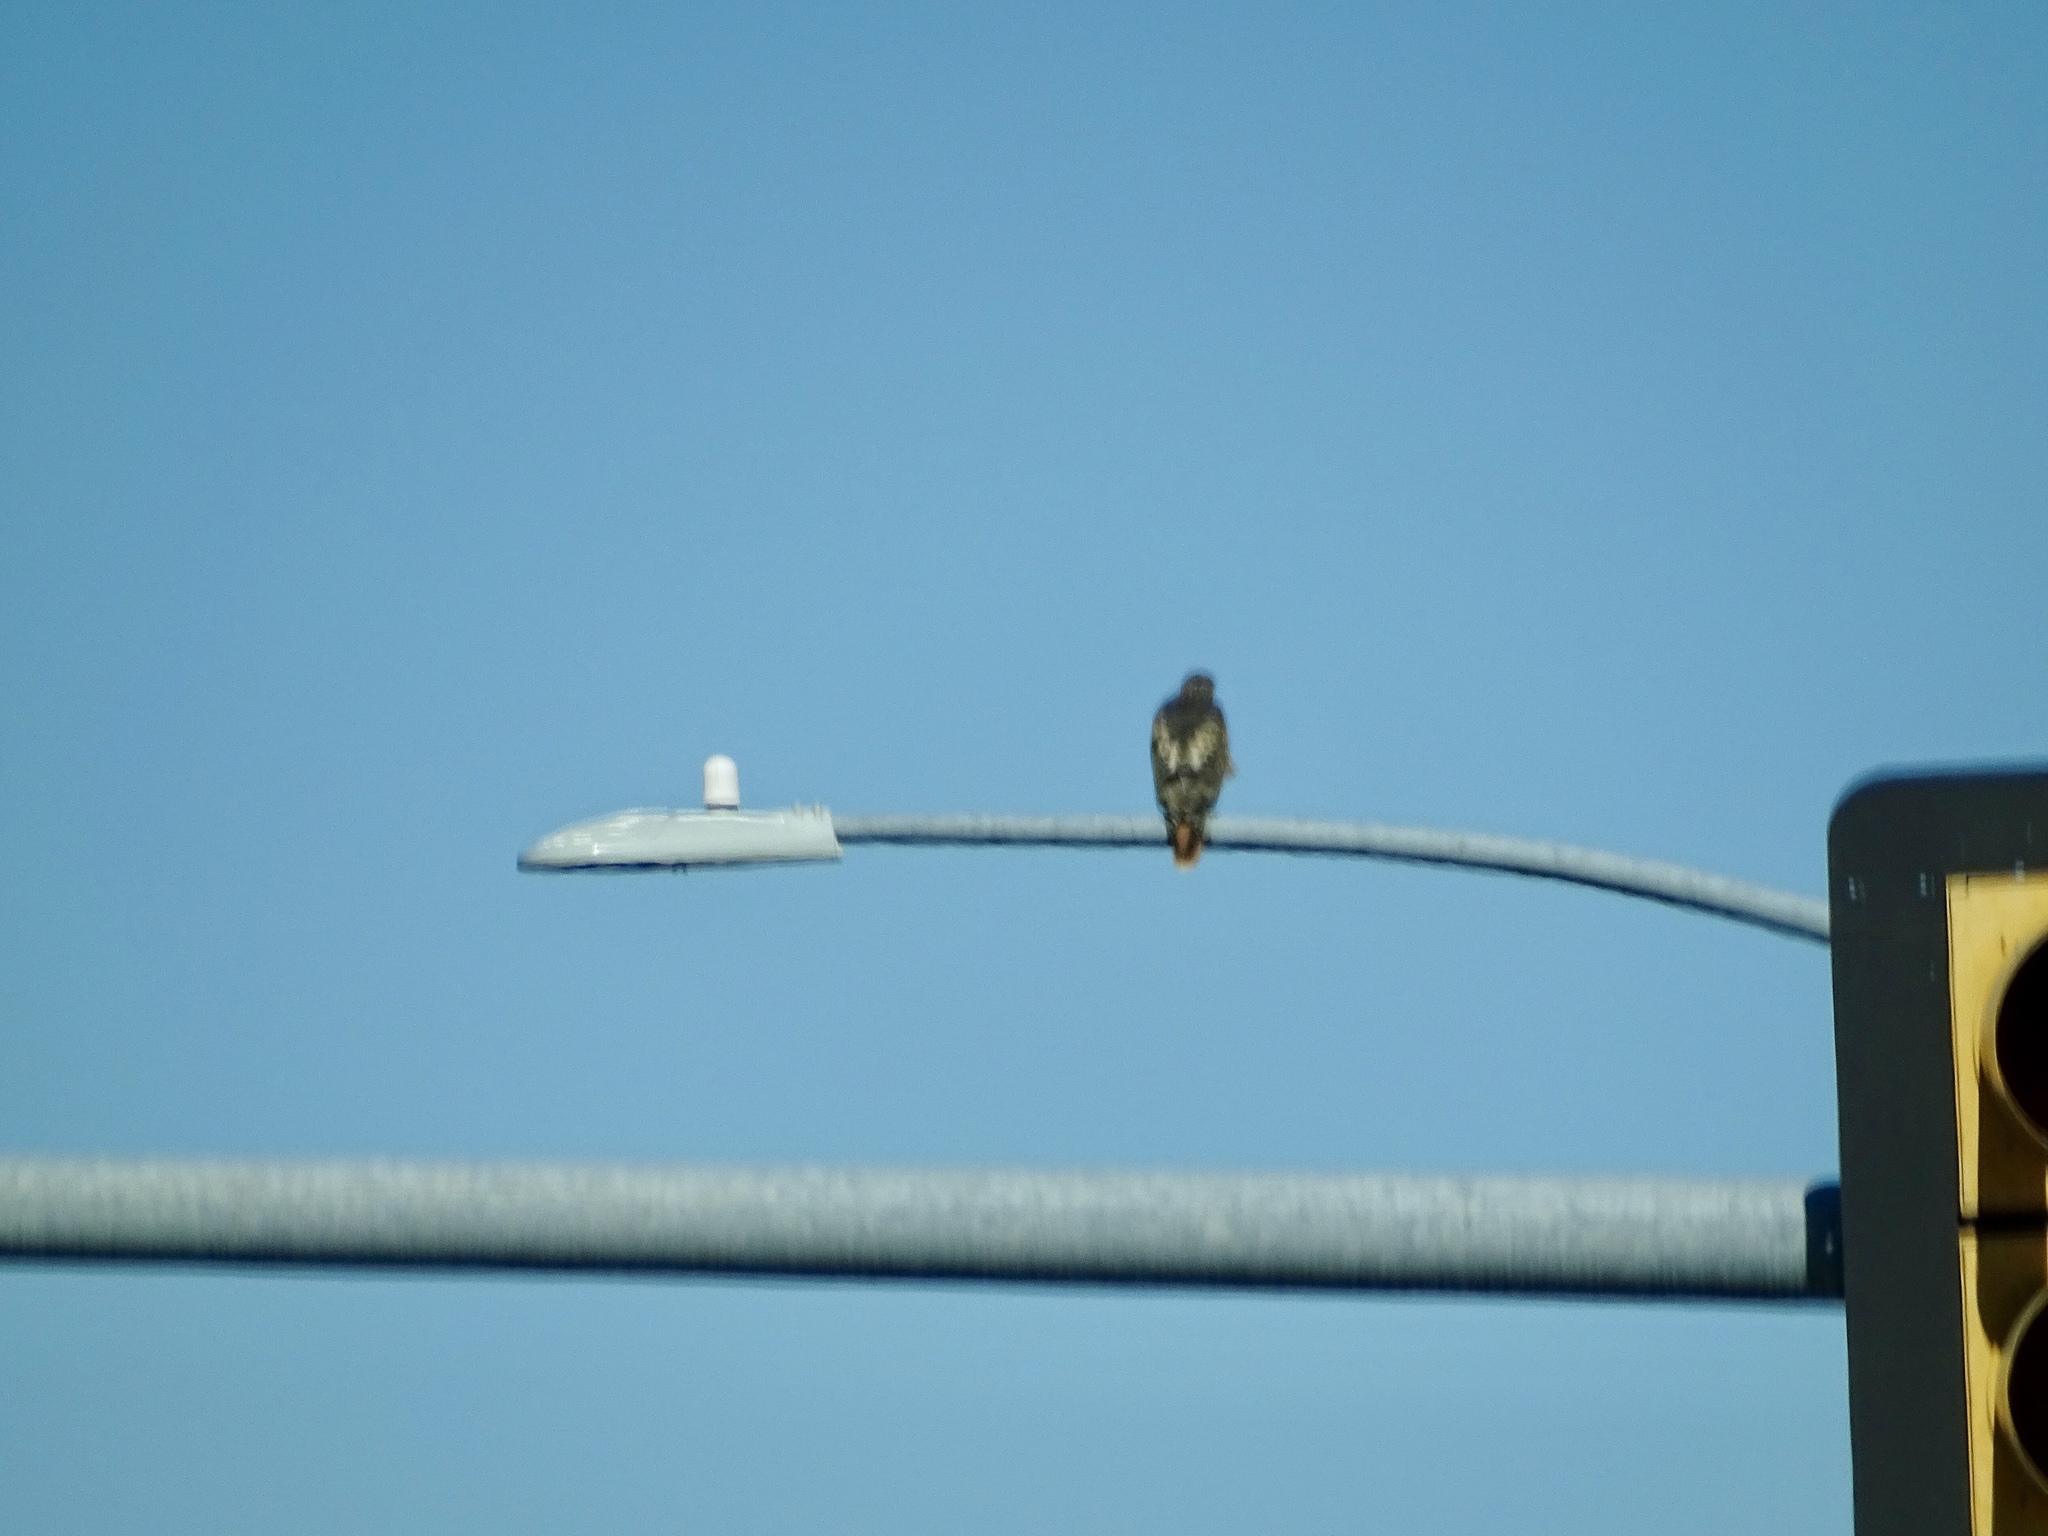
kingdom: Animalia
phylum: Chordata
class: Aves
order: Accipitriformes
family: Accipitridae
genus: Buteo
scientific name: Buteo jamaicensis
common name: Red-tailed hawk
